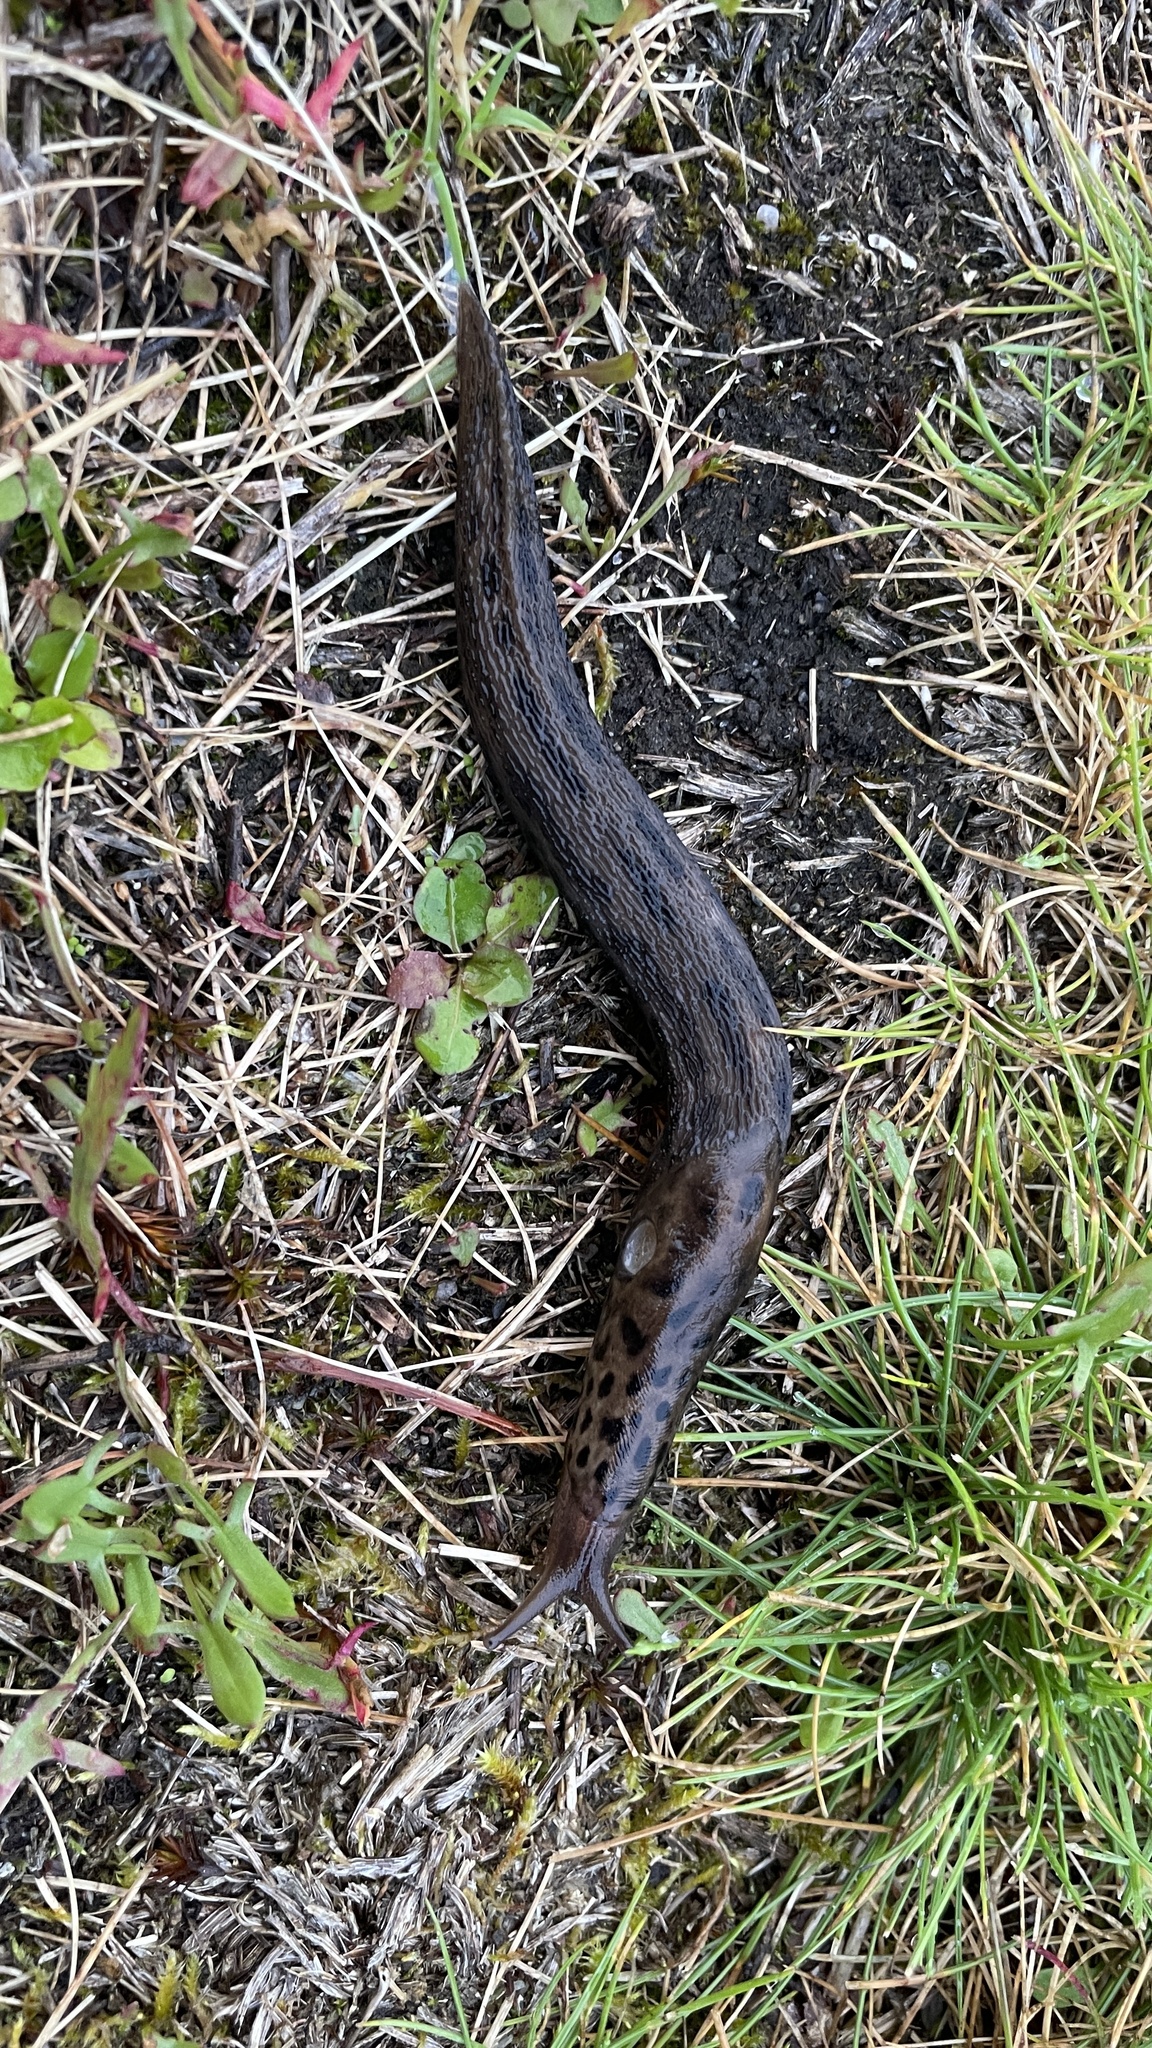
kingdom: Animalia
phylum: Mollusca
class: Gastropoda
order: Stylommatophora
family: Limacidae
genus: Limax
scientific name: Limax maximus
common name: Great grey slug
